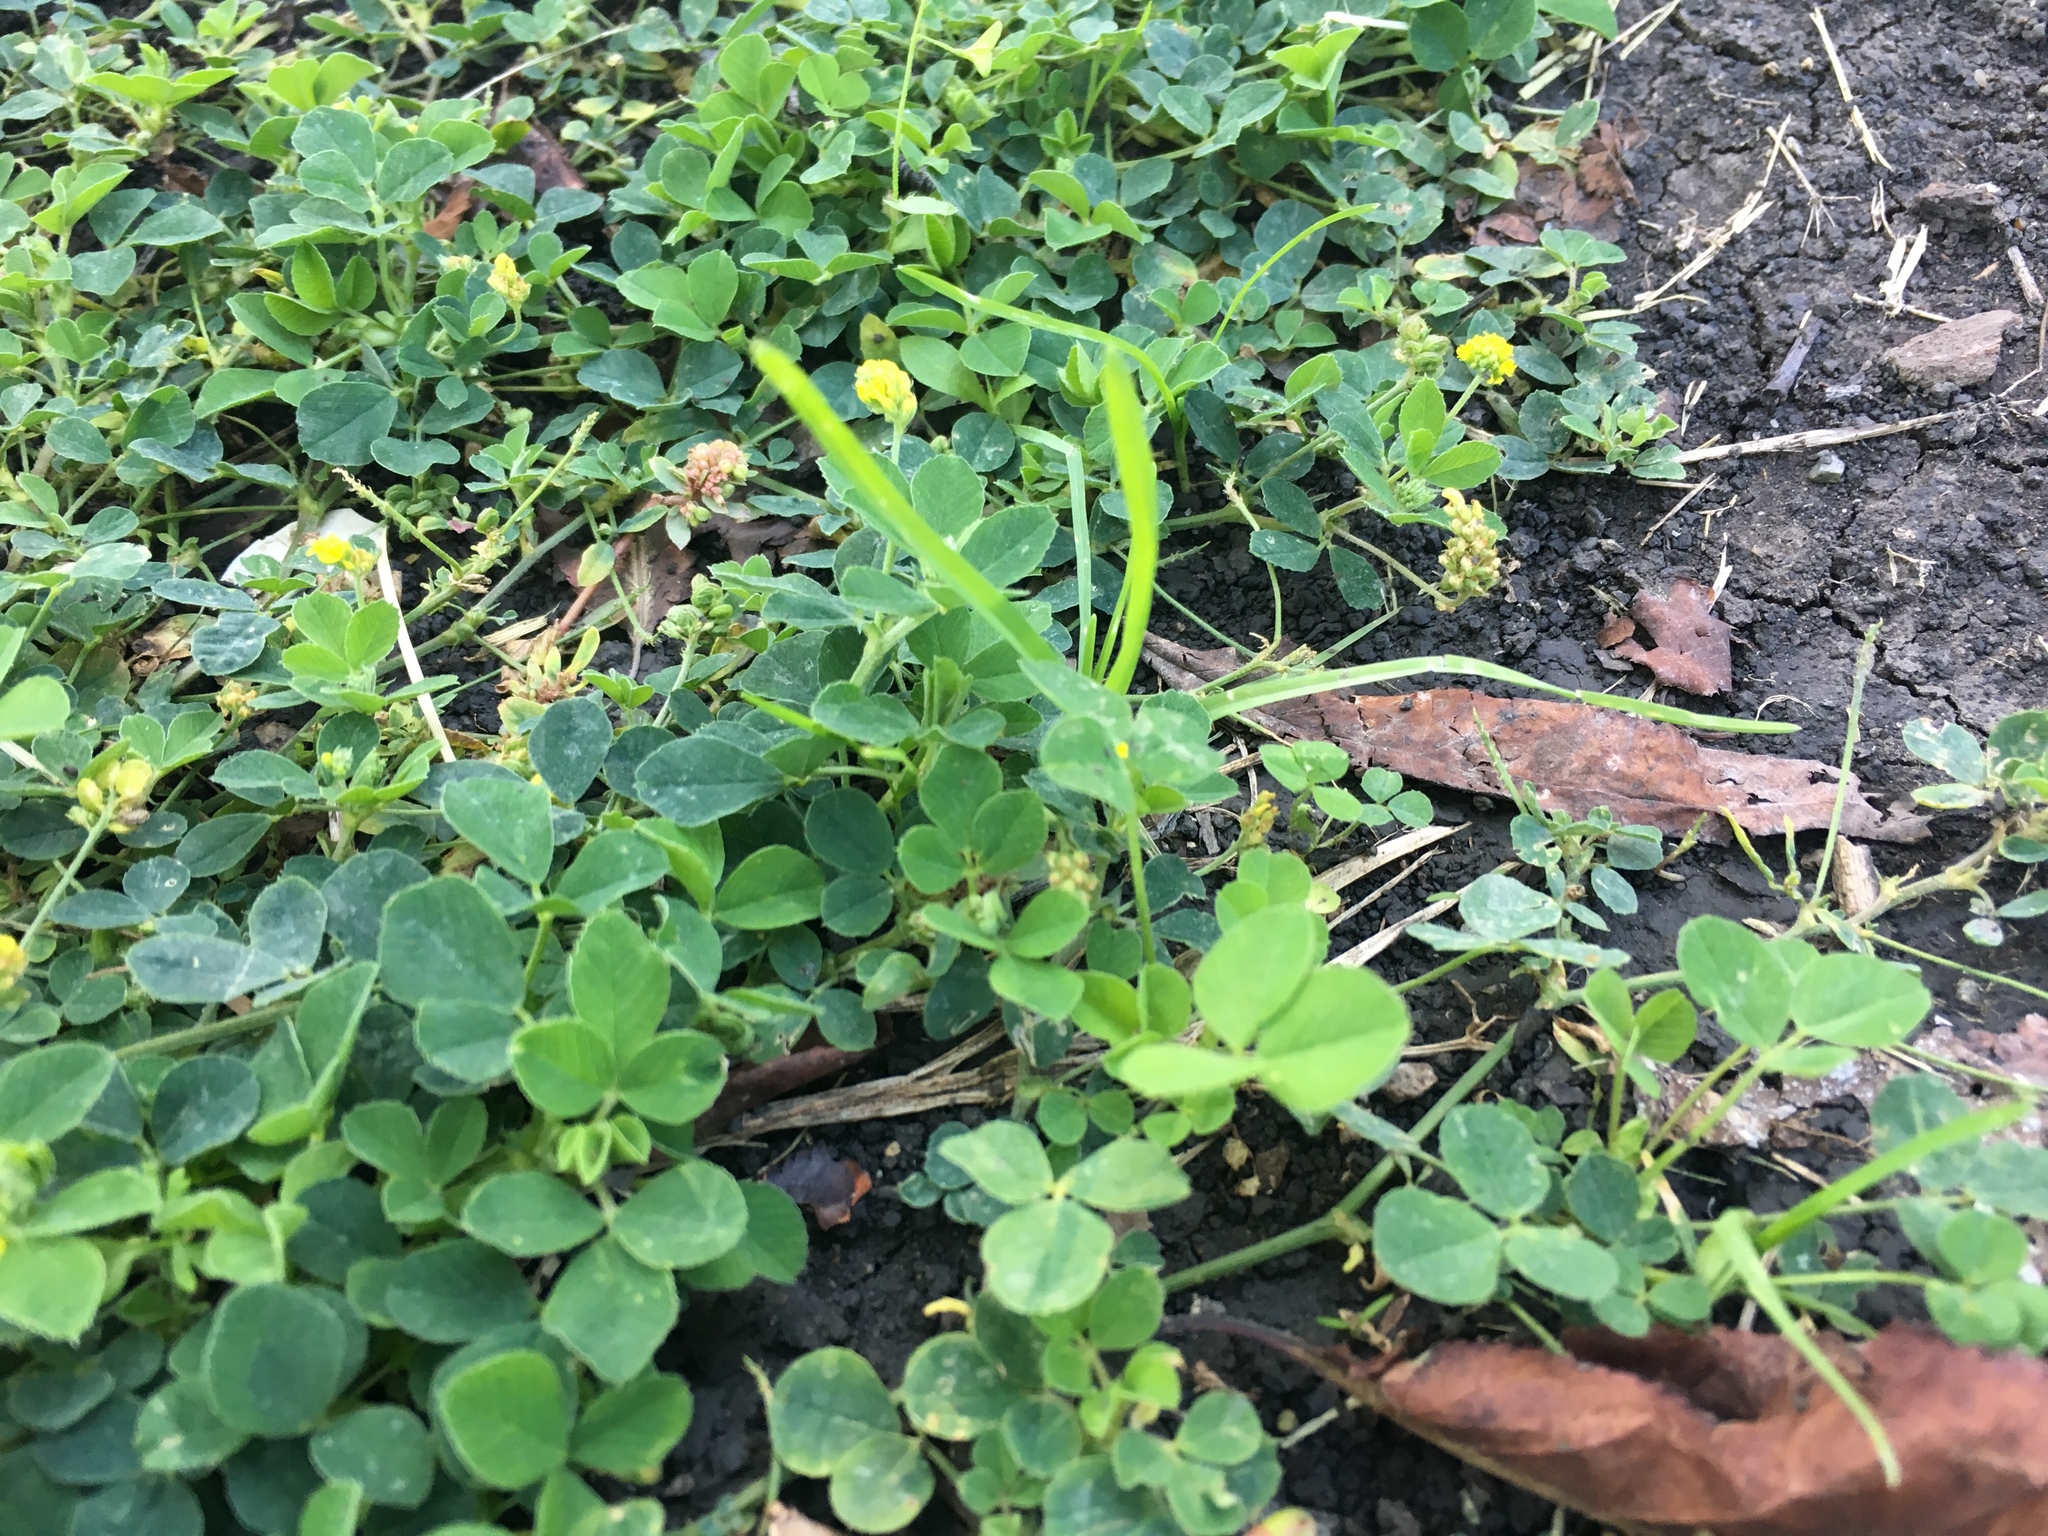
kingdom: Plantae
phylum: Tracheophyta
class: Magnoliopsida
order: Fabales
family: Fabaceae
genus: Medicago
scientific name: Medicago lupulina
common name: Black medick
